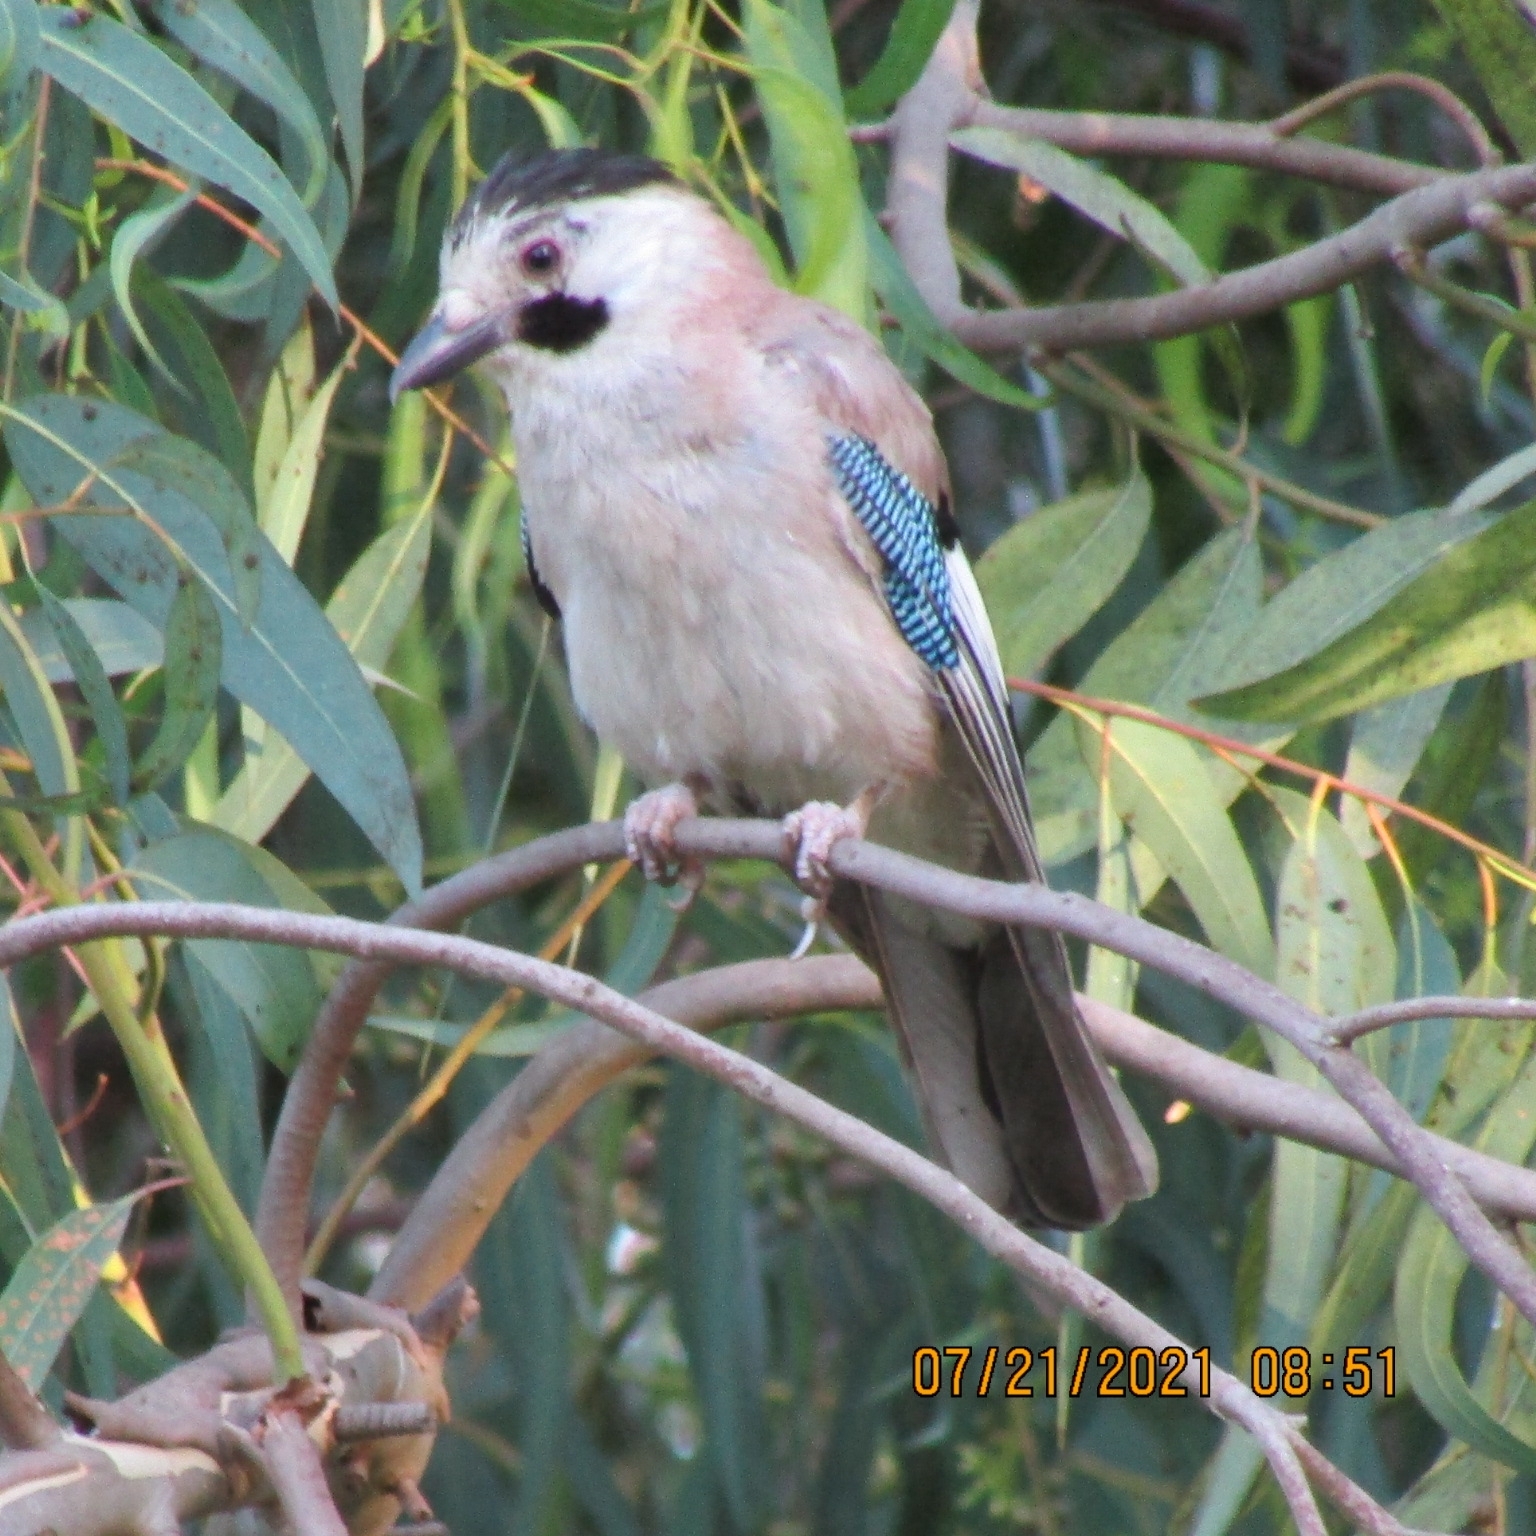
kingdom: Animalia
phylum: Chordata
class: Aves
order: Passeriformes
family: Corvidae
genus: Garrulus
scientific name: Garrulus glandarius
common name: Eurasian jay
